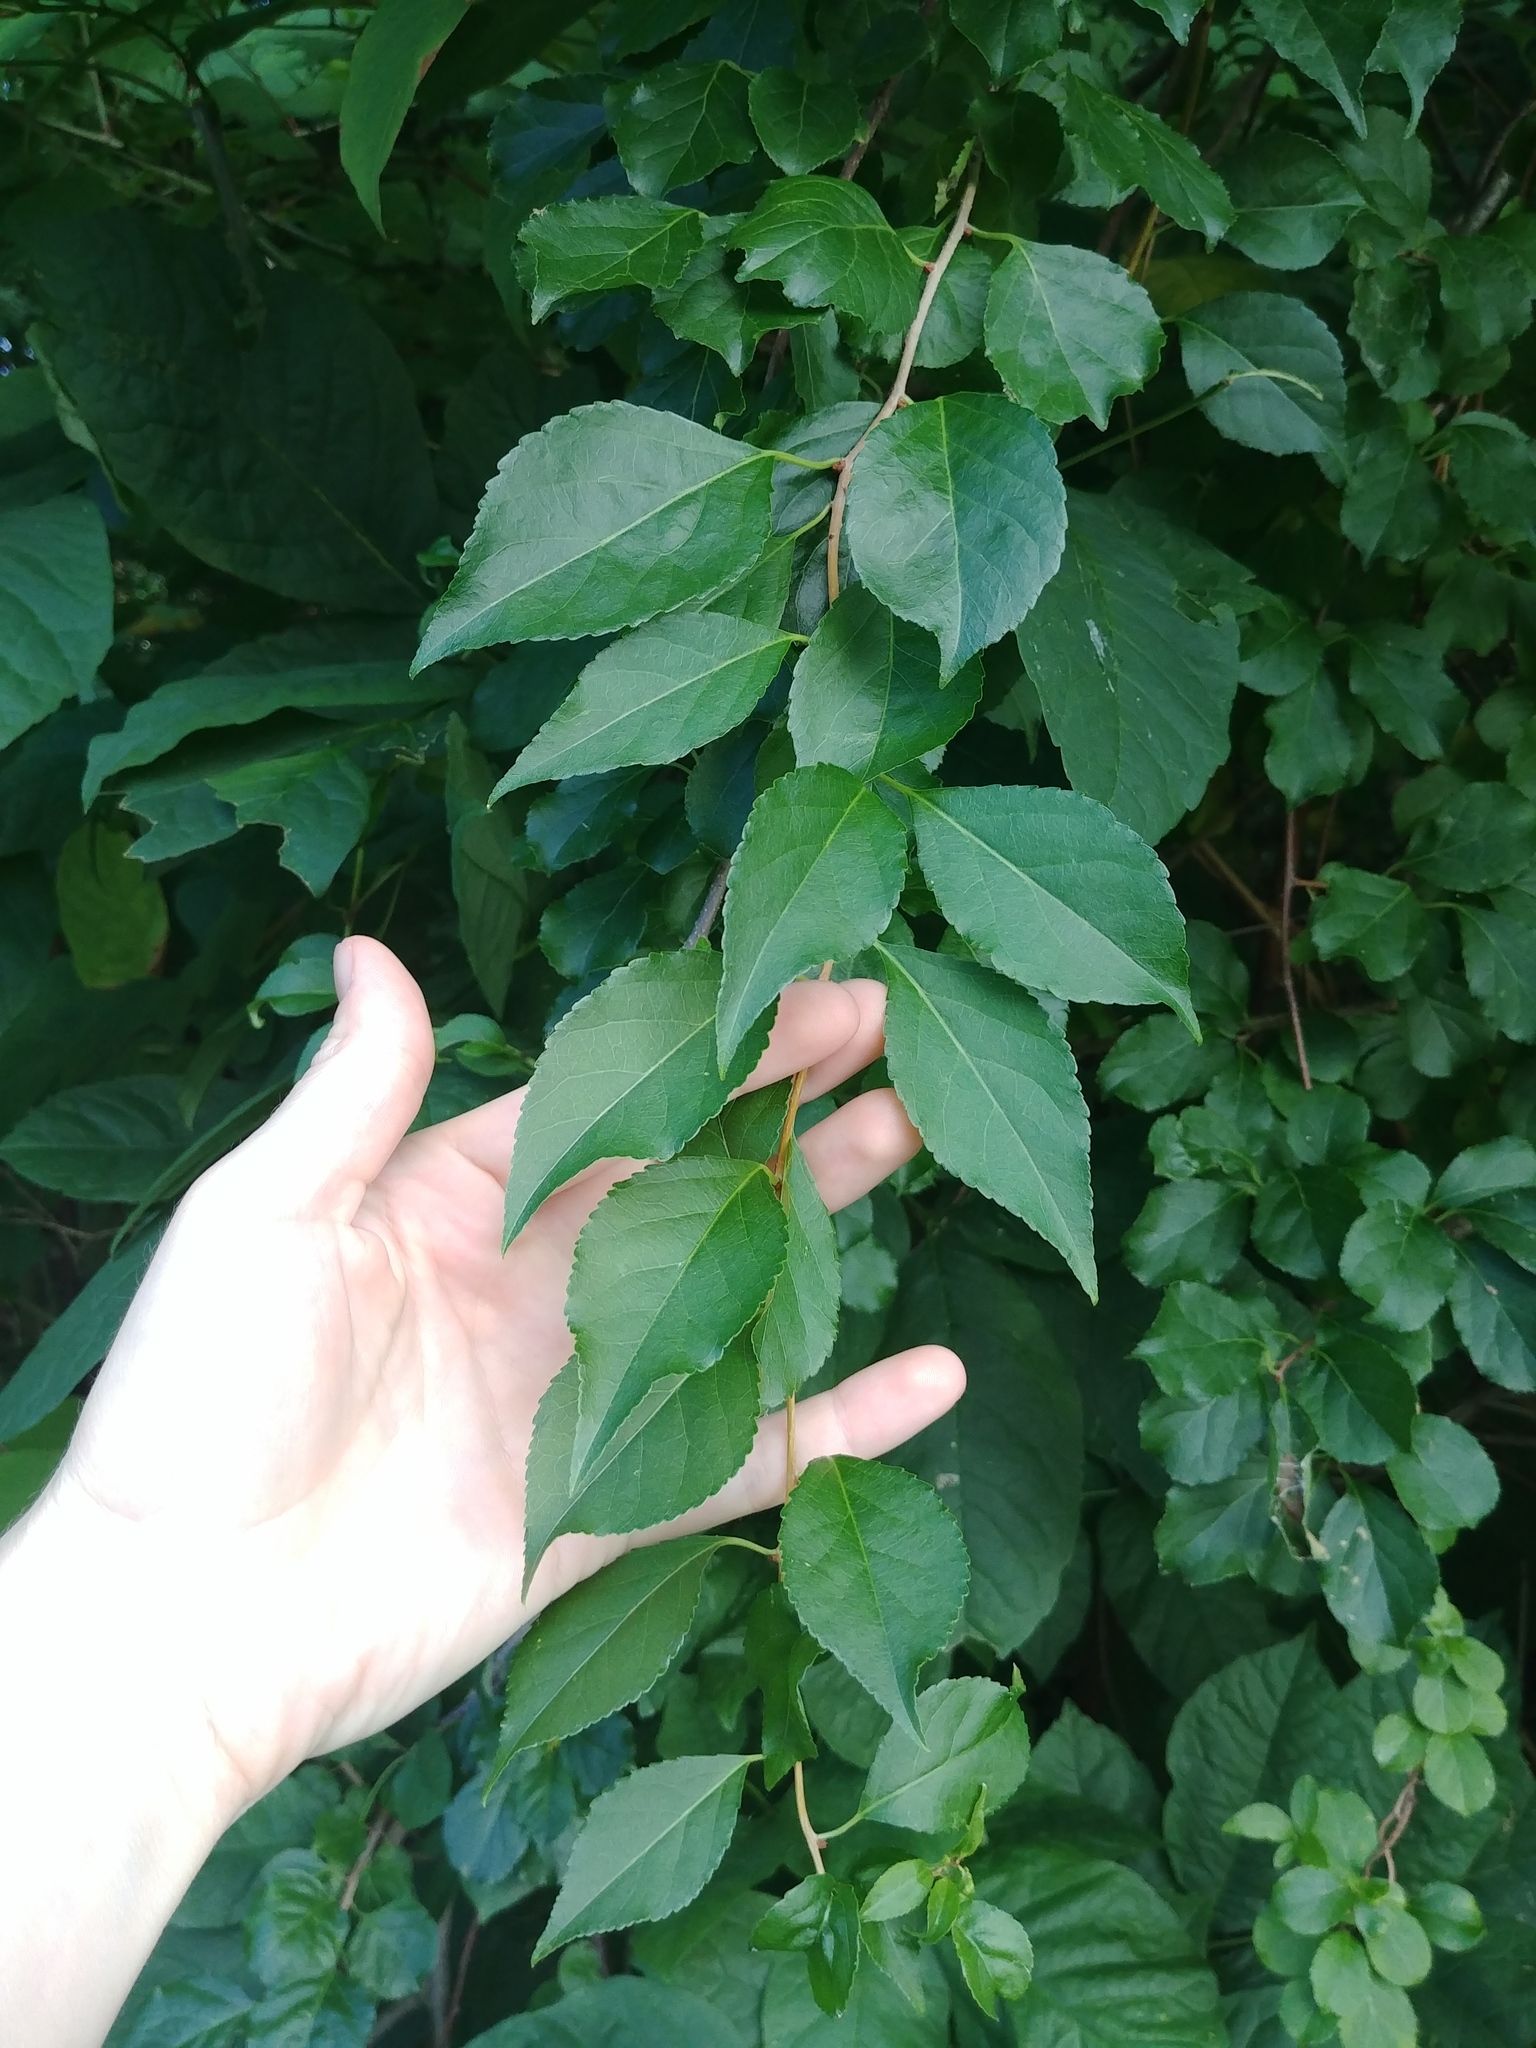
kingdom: Plantae
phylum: Tracheophyta
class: Magnoliopsida
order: Celastrales
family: Celastraceae
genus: Celastrus
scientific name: Celastrus orbiculatus
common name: Oriental bittersweet
